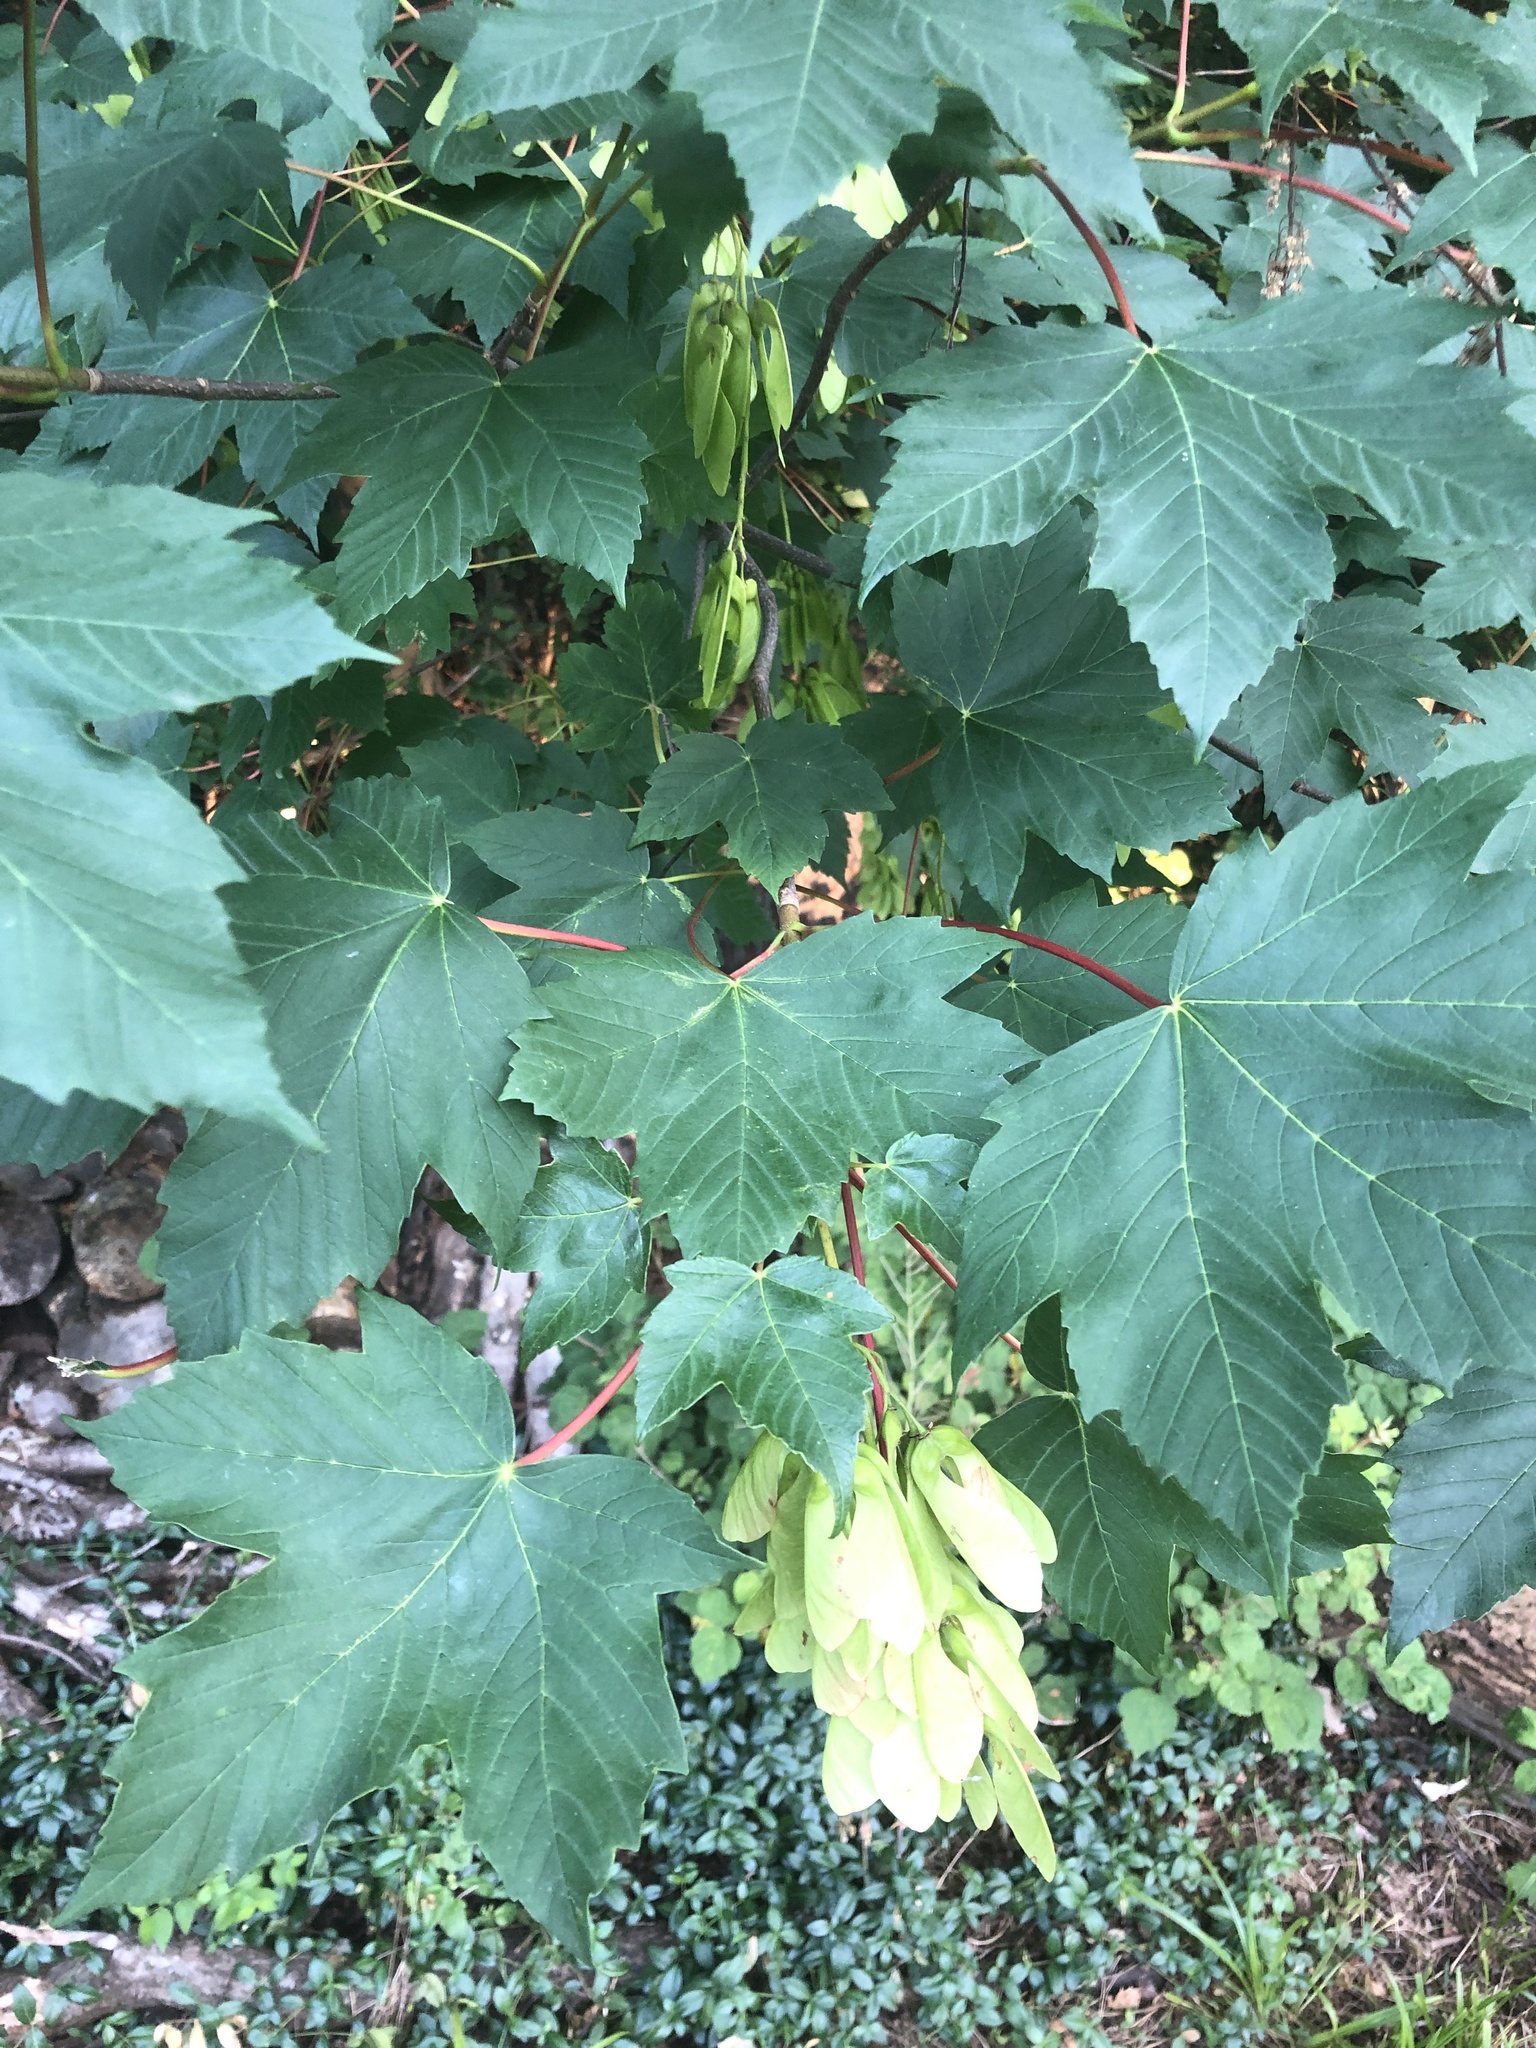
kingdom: Plantae
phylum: Tracheophyta
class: Magnoliopsida
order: Sapindales
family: Sapindaceae
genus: Acer
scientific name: Acer pseudoplatanus
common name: Sycamore
